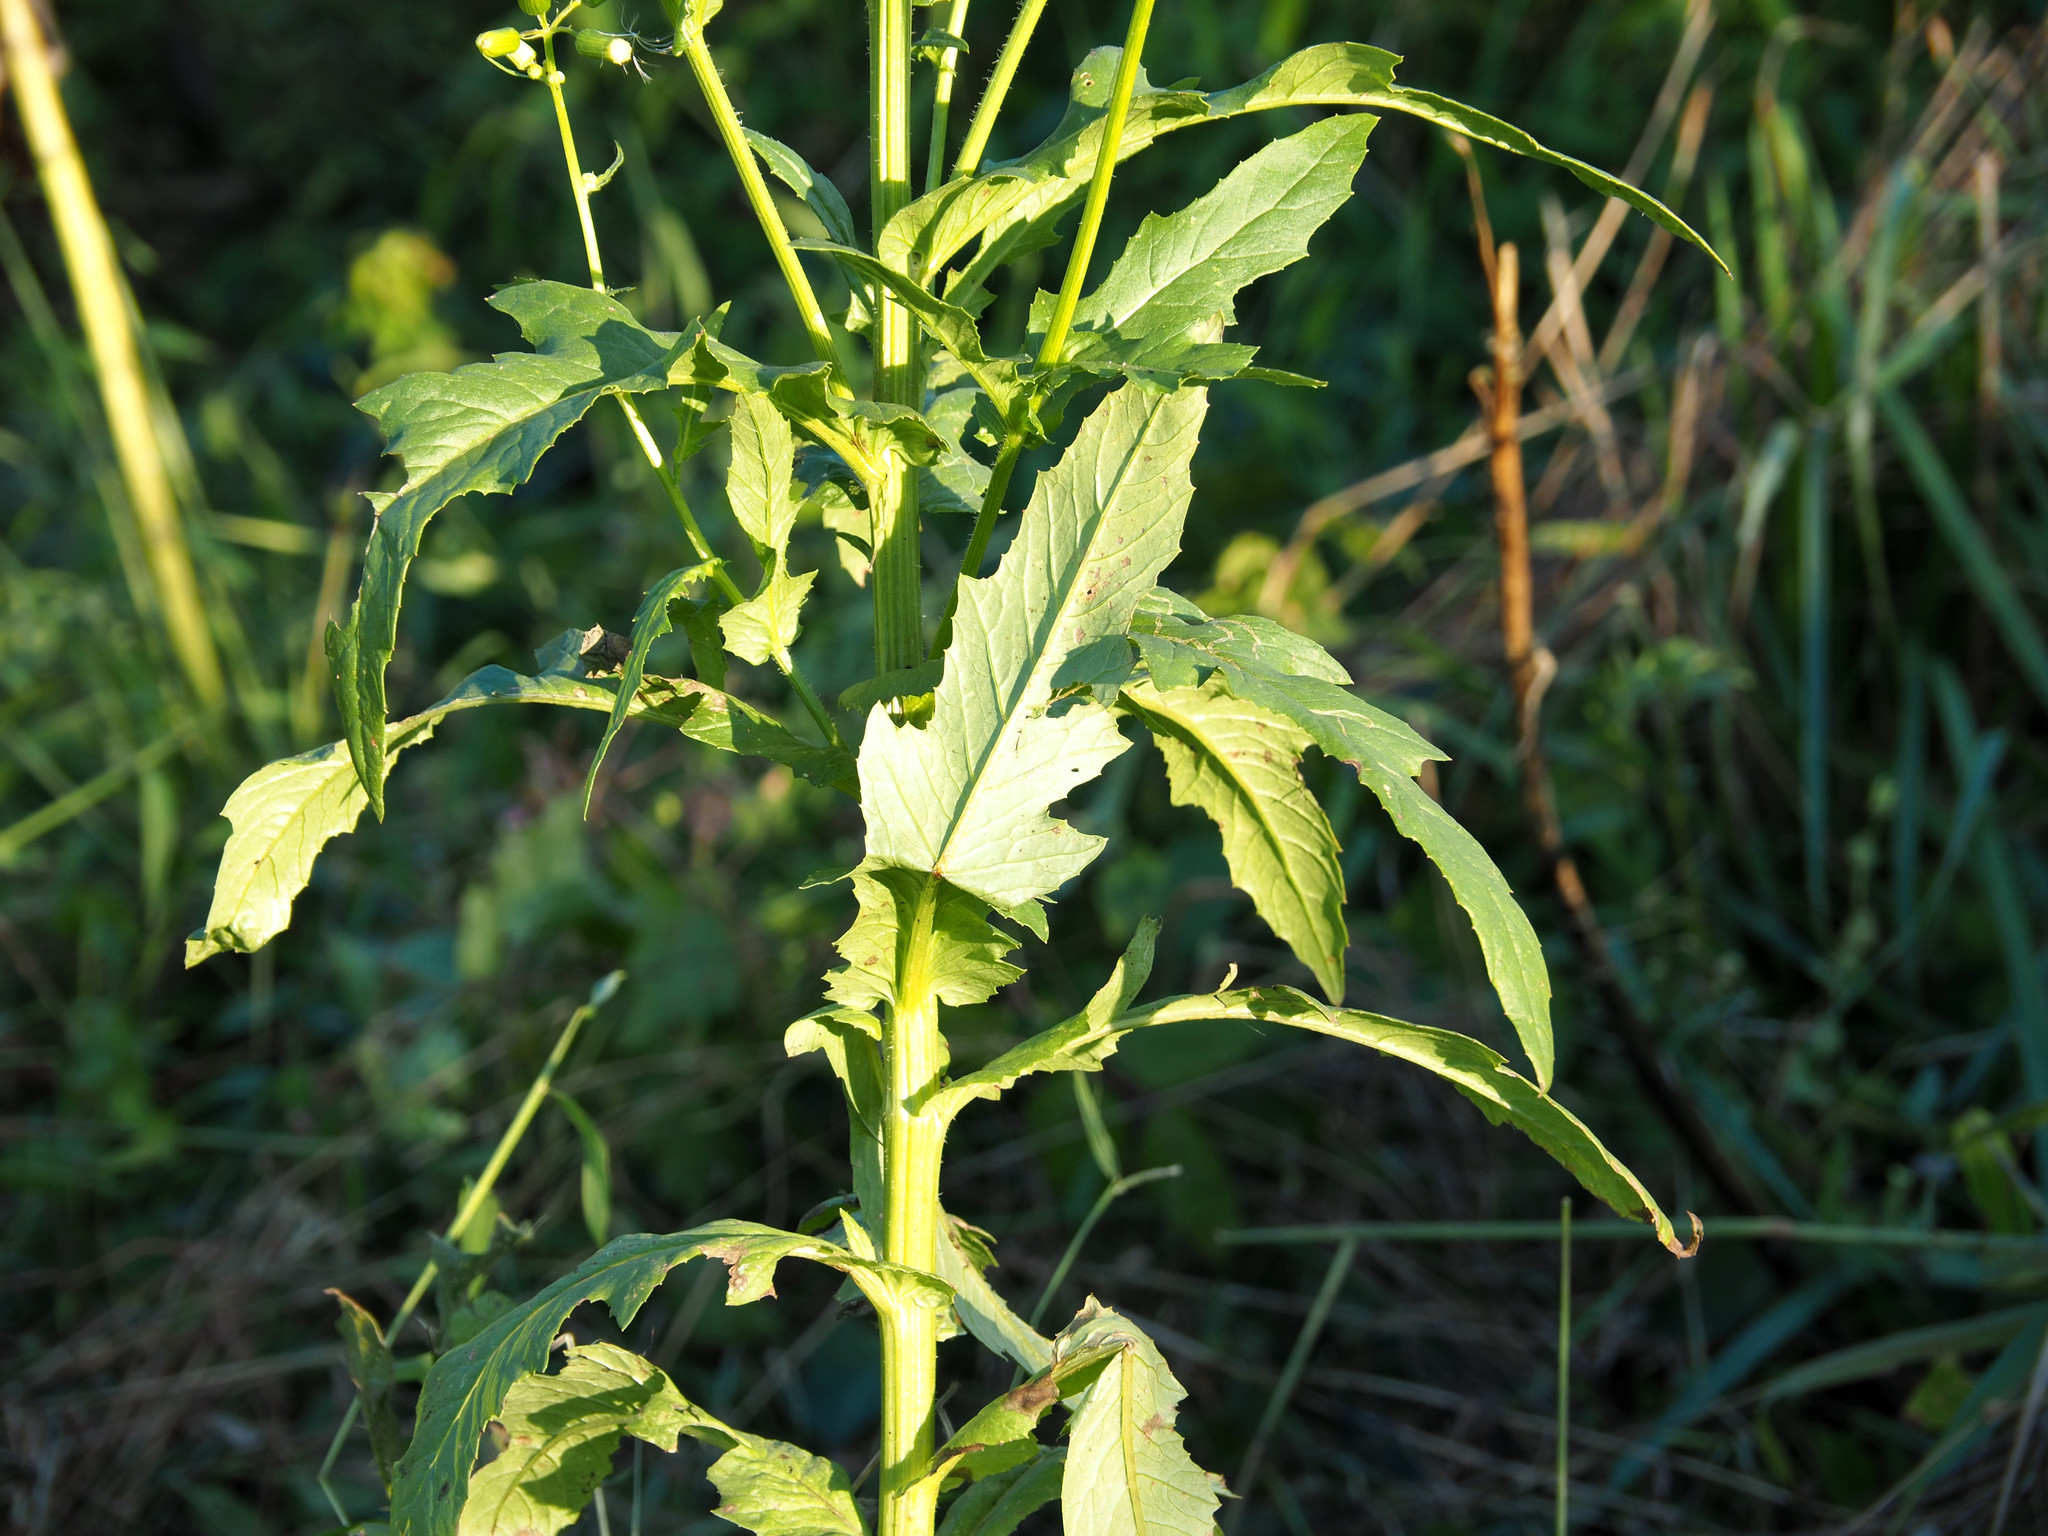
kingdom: Plantae
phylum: Tracheophyta
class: Magnoliopsida
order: Asterales
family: Asteraceae
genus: Erechtites
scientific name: Erechtites hieraciifolius
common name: American burnweed
